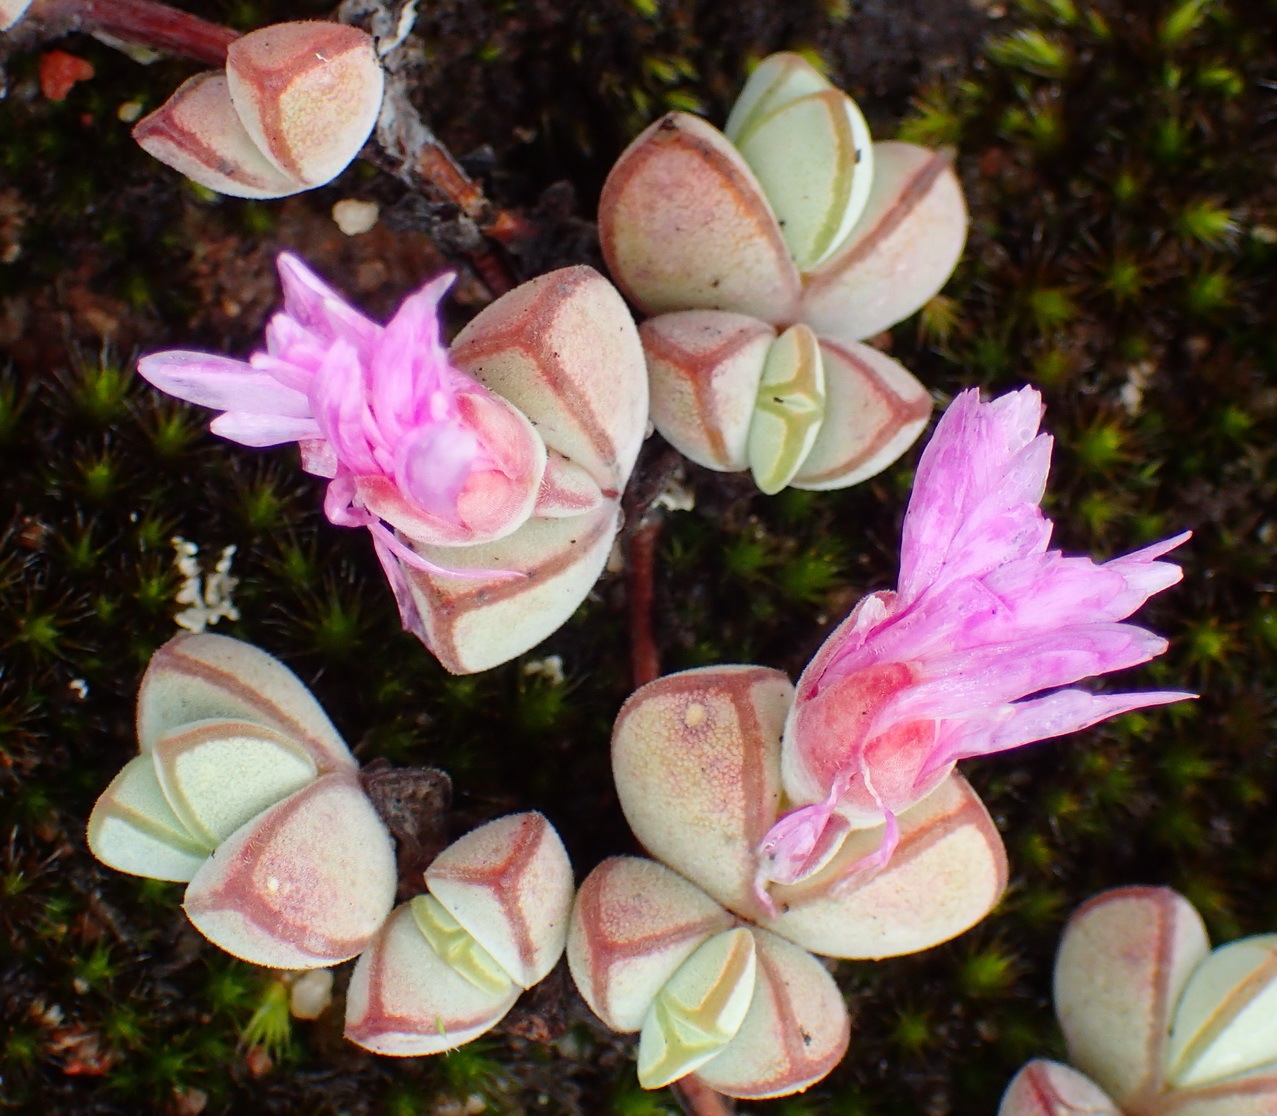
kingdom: Plantae
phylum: Tracheophyta
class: Magnoliopsida
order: Caryophyllales
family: Aizoaceae
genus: Braunsia
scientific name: Braunsia maximiliani
